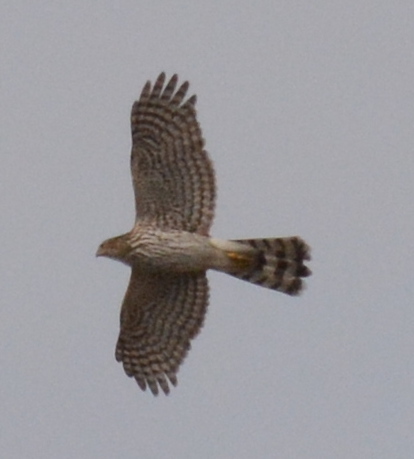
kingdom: Animalia
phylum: Chordata
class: Aves
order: Accipitriformes
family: Accipitridae
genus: Accipiter
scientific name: Accipiter cooperii
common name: Cooper's hawk
